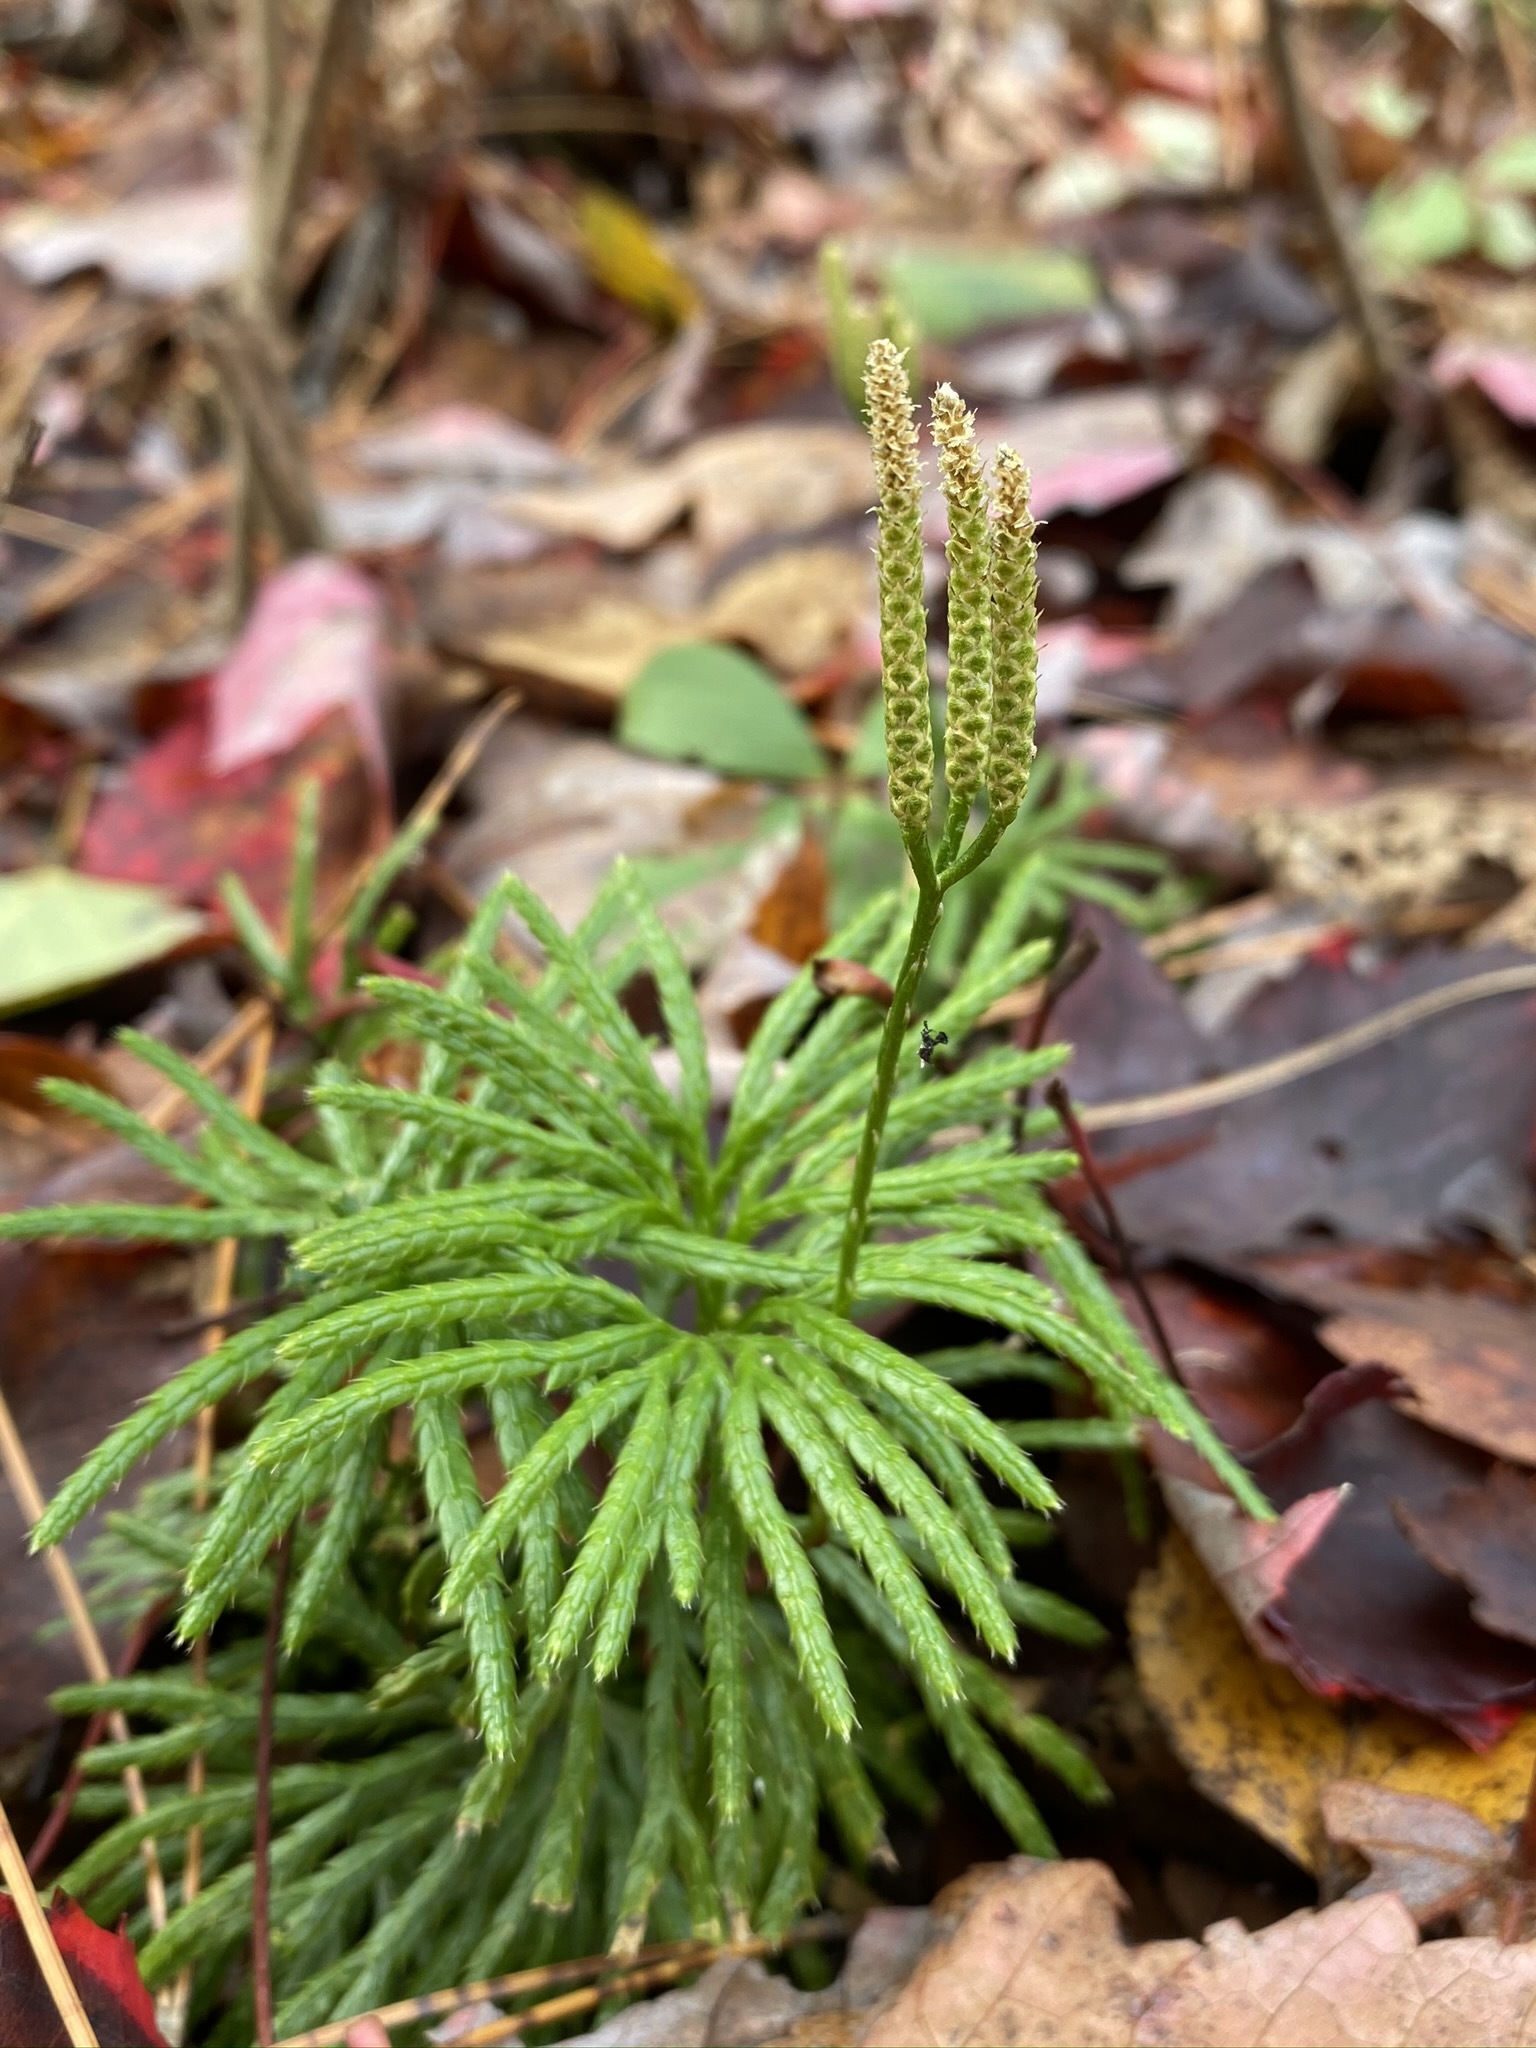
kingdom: Plantae
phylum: Tracheophyta
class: Lycopodiopsida
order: Lycopodiales
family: Lycopodiaceae
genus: Diphasiastrum
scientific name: Diphasiastrum digitatum
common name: Southern running-pine
